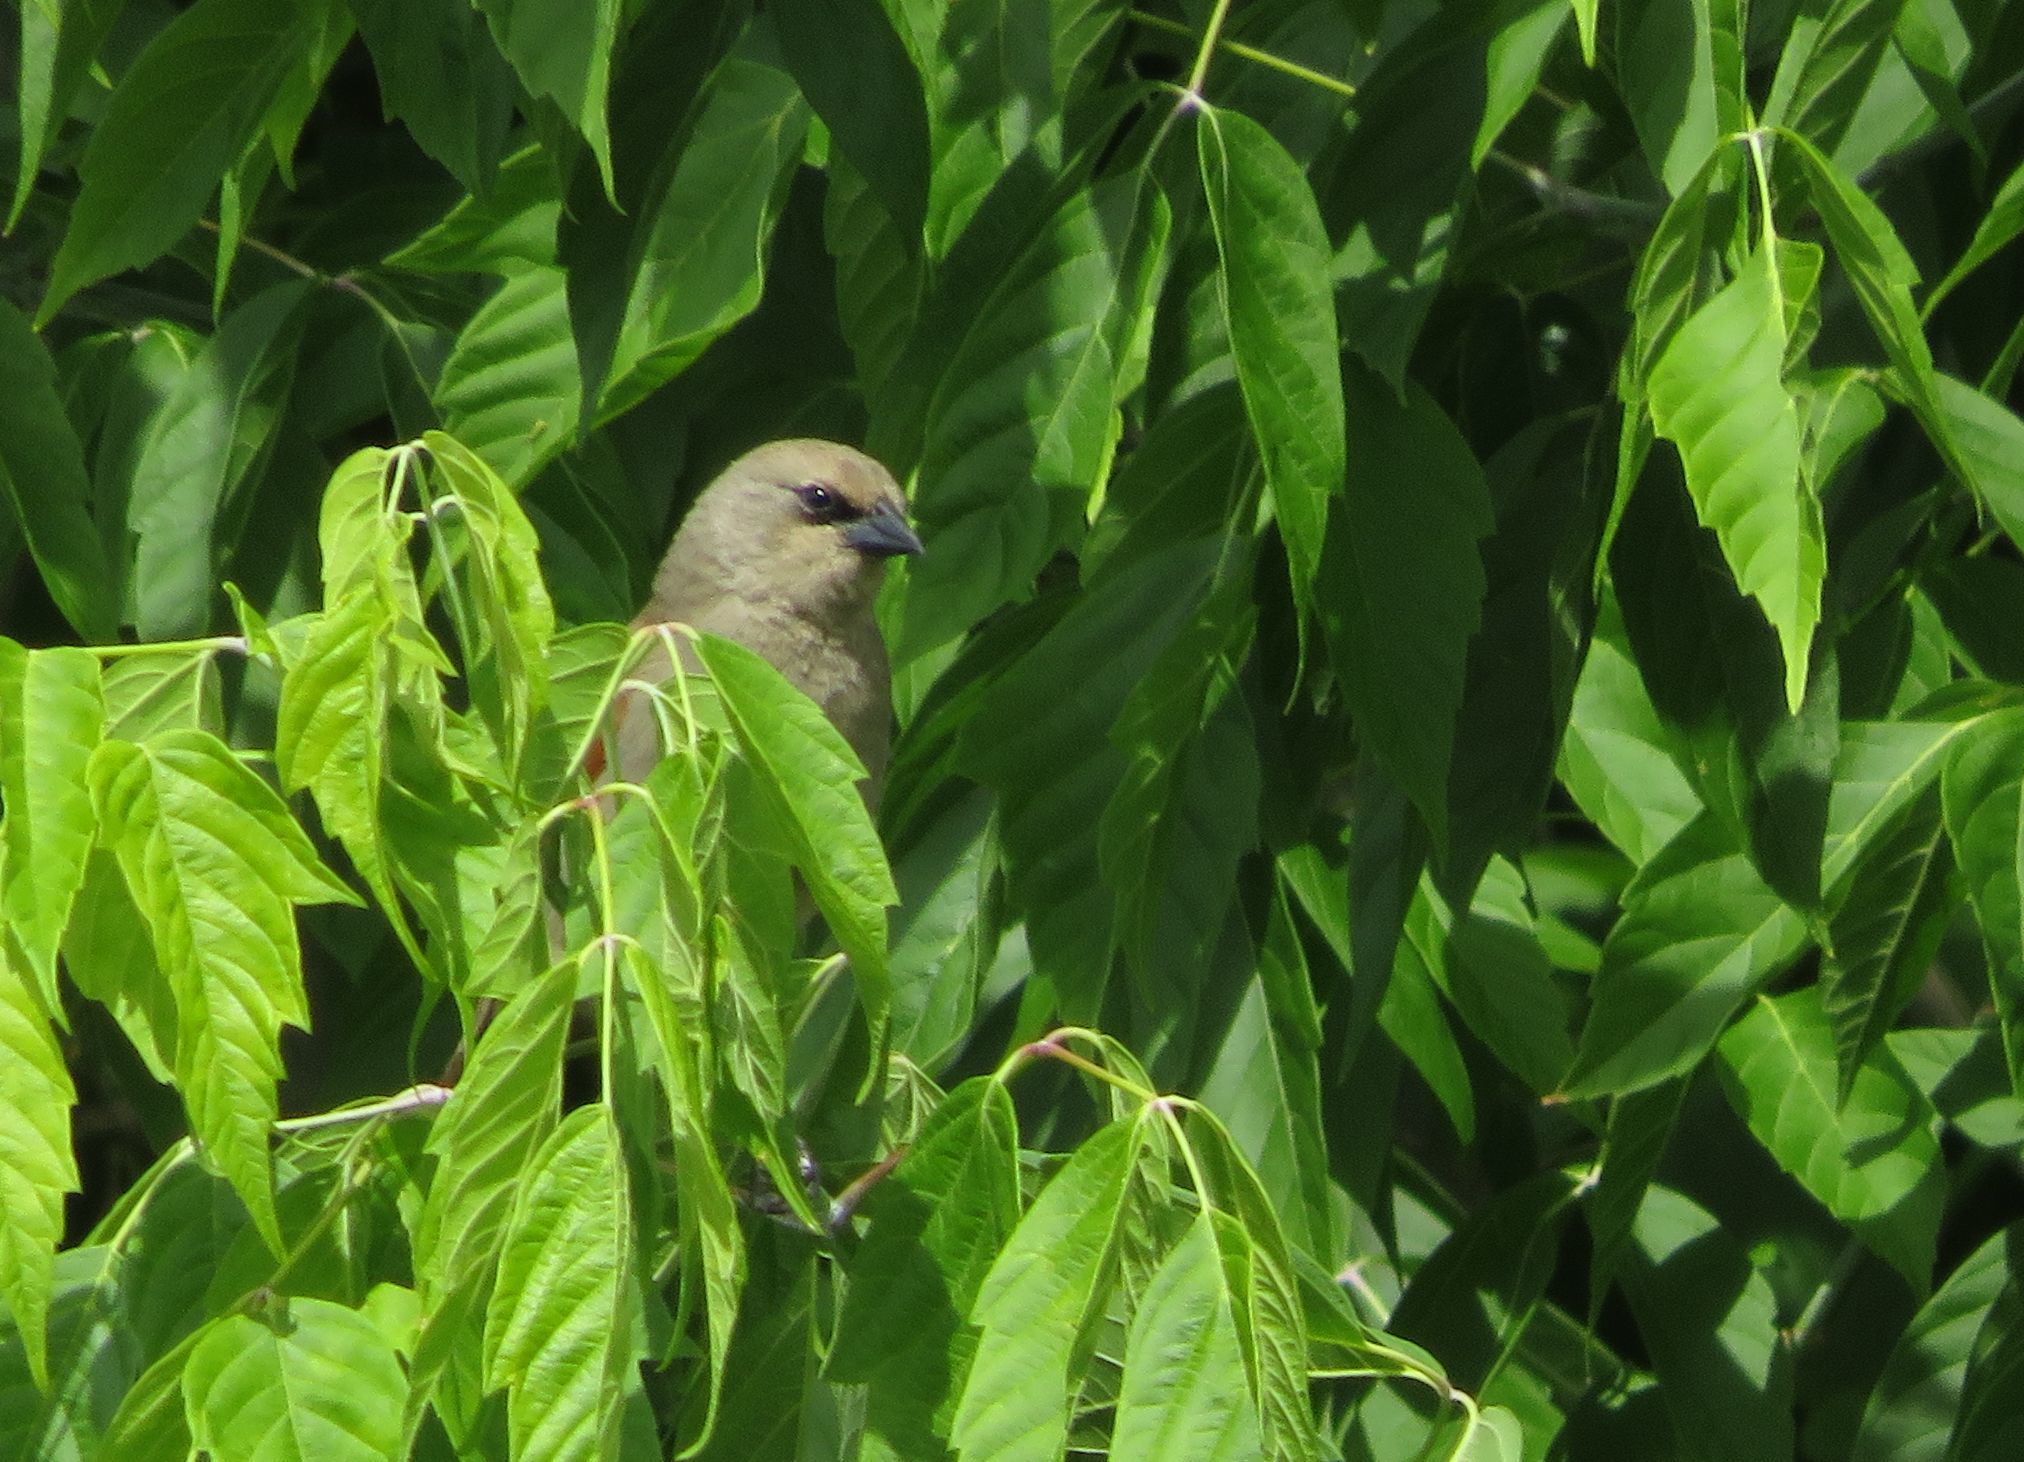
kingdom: Animalia
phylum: Chordata
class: Aves
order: Passeriformes
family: Icteridae
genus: Agelaioides
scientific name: Agelaioides badius
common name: Baywing
